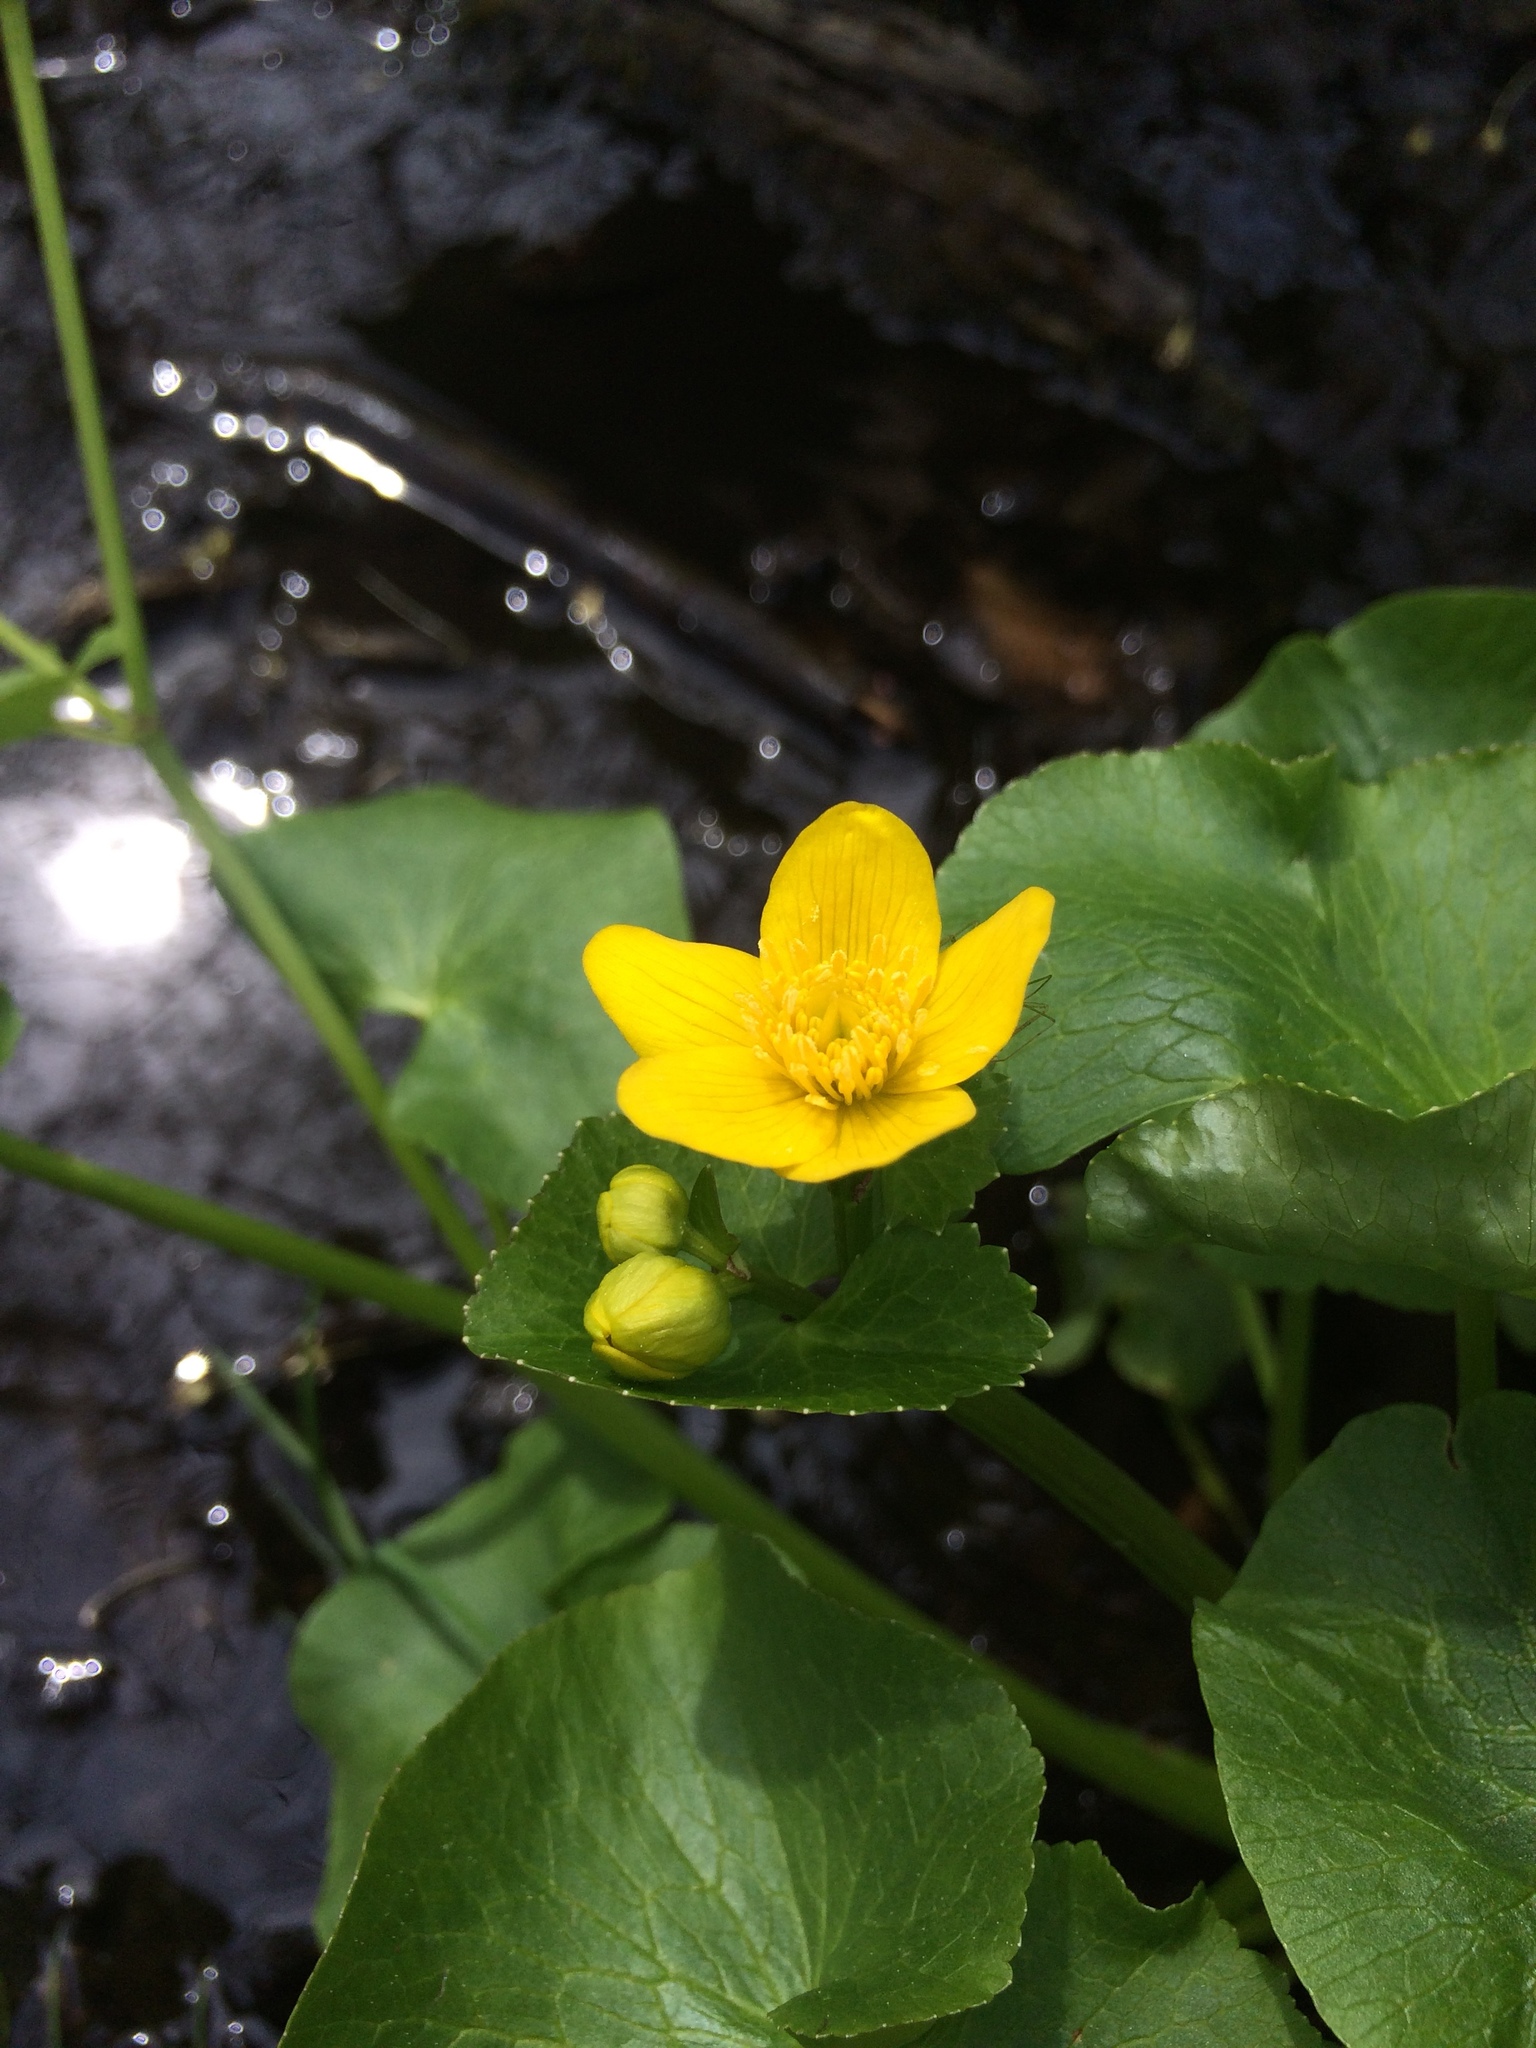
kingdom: Plantae
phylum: Tracheophyta
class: Magnoliopsida
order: Ranunculales
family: Ranunculaceae
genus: Caltha
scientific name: Caltha palustris
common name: Marsh marigold
